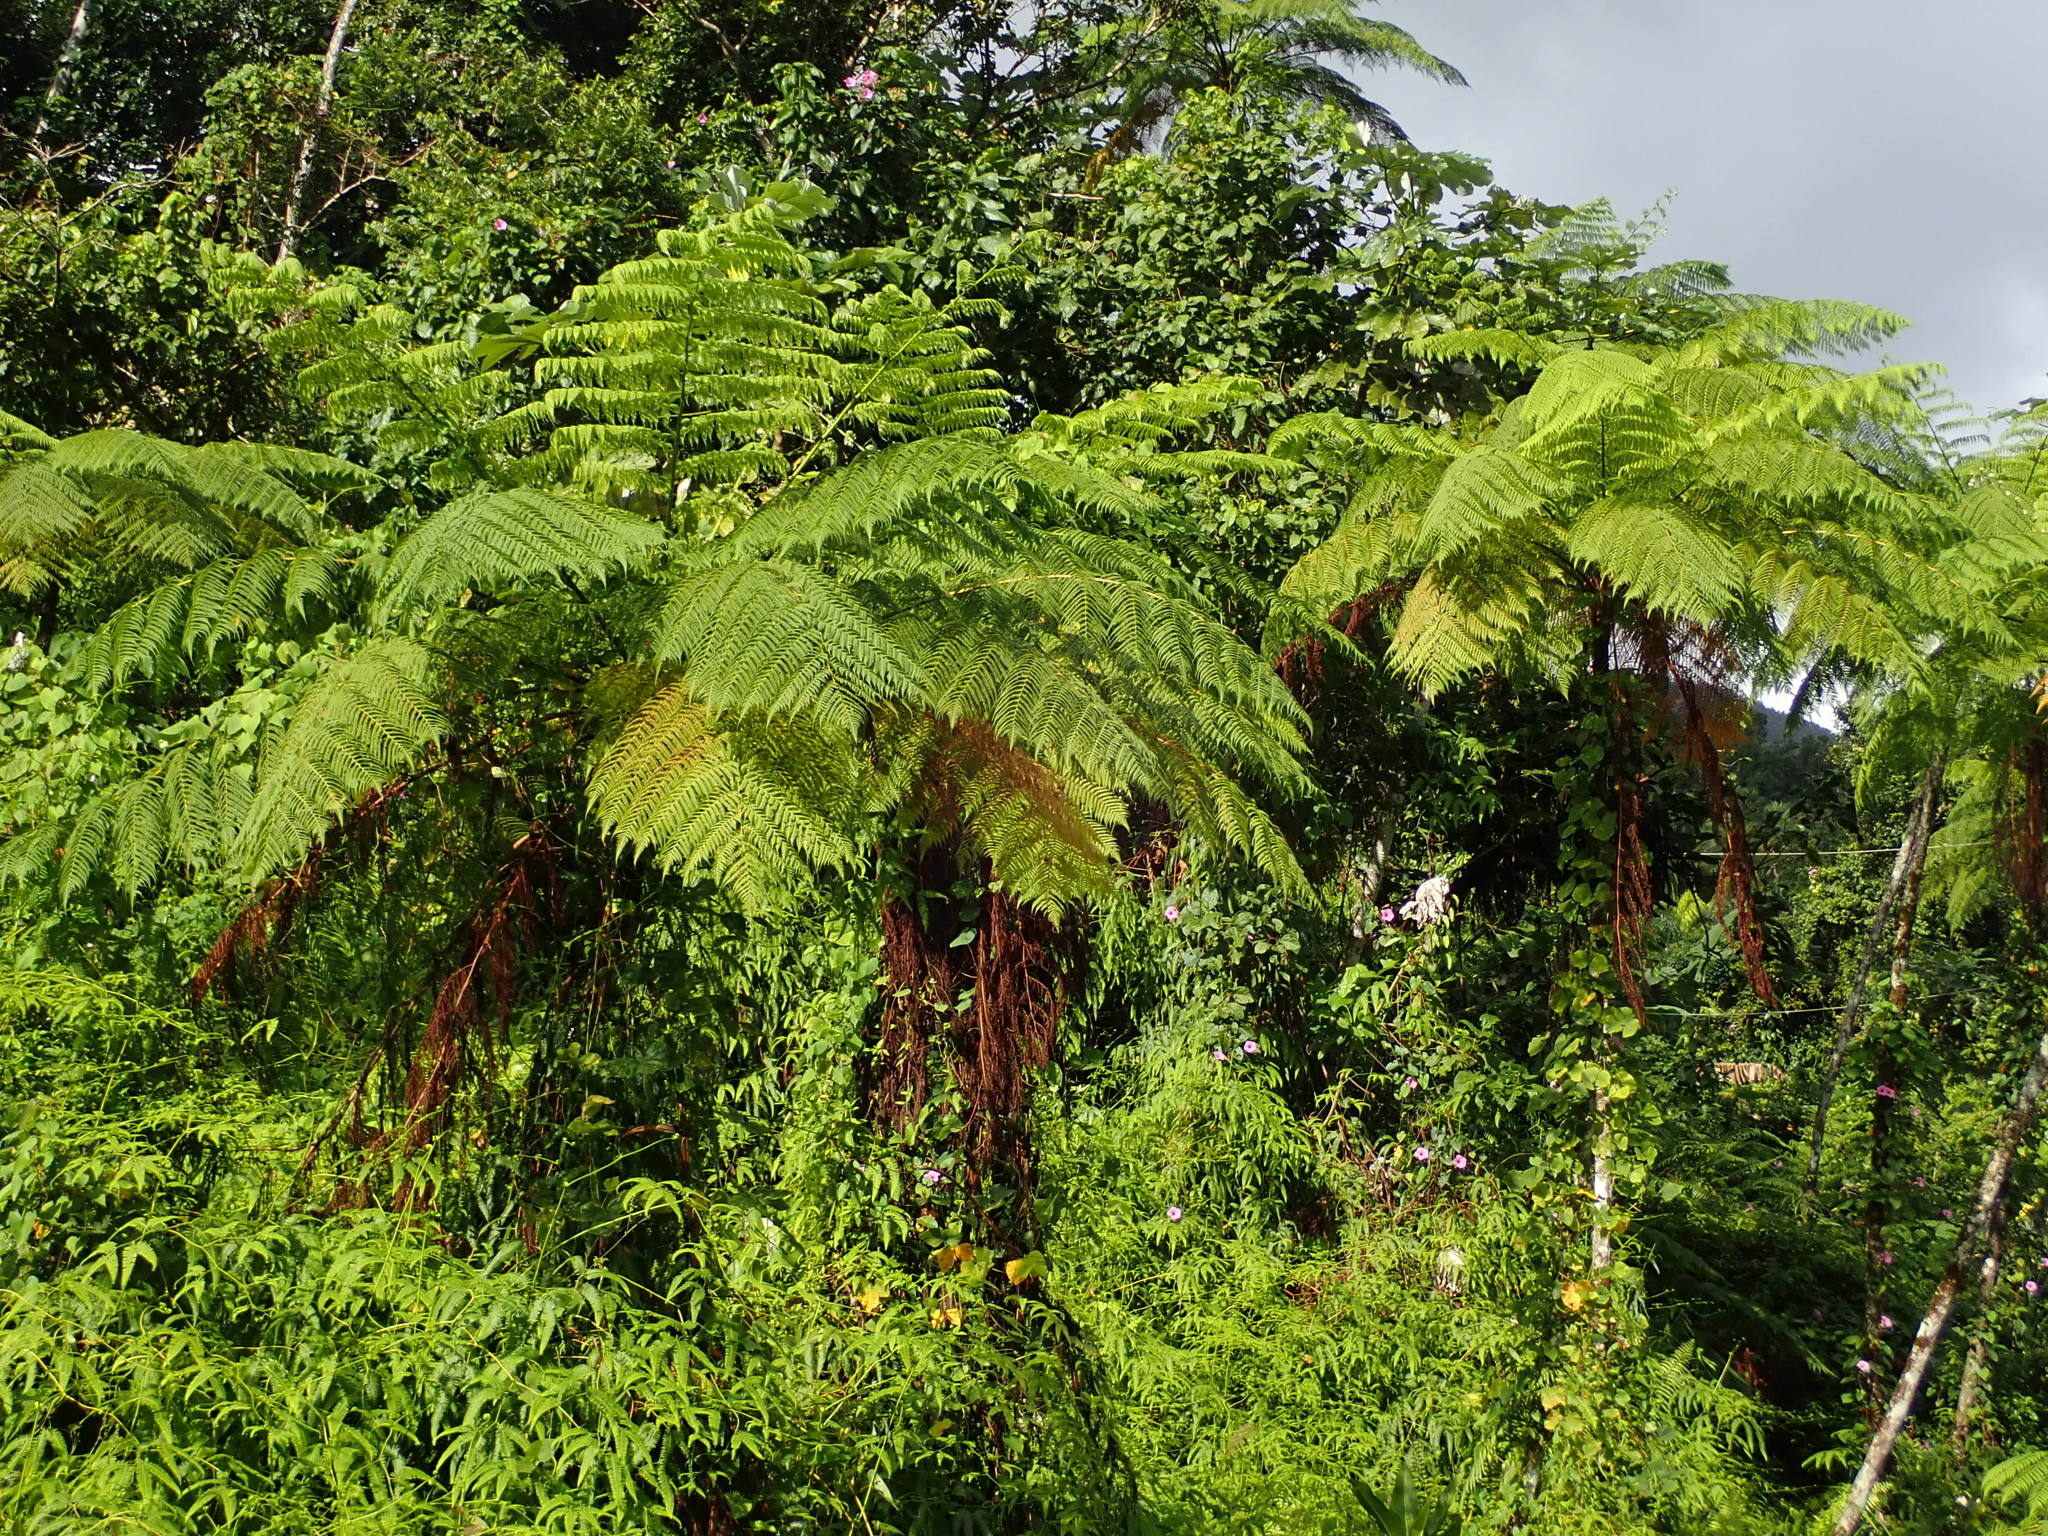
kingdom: Plantae
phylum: Tracheophyta
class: Polypodiopsida
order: Cyatheales
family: Cyatheaceae
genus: Cyathea
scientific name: Cyathea arborea
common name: West indian treefern
